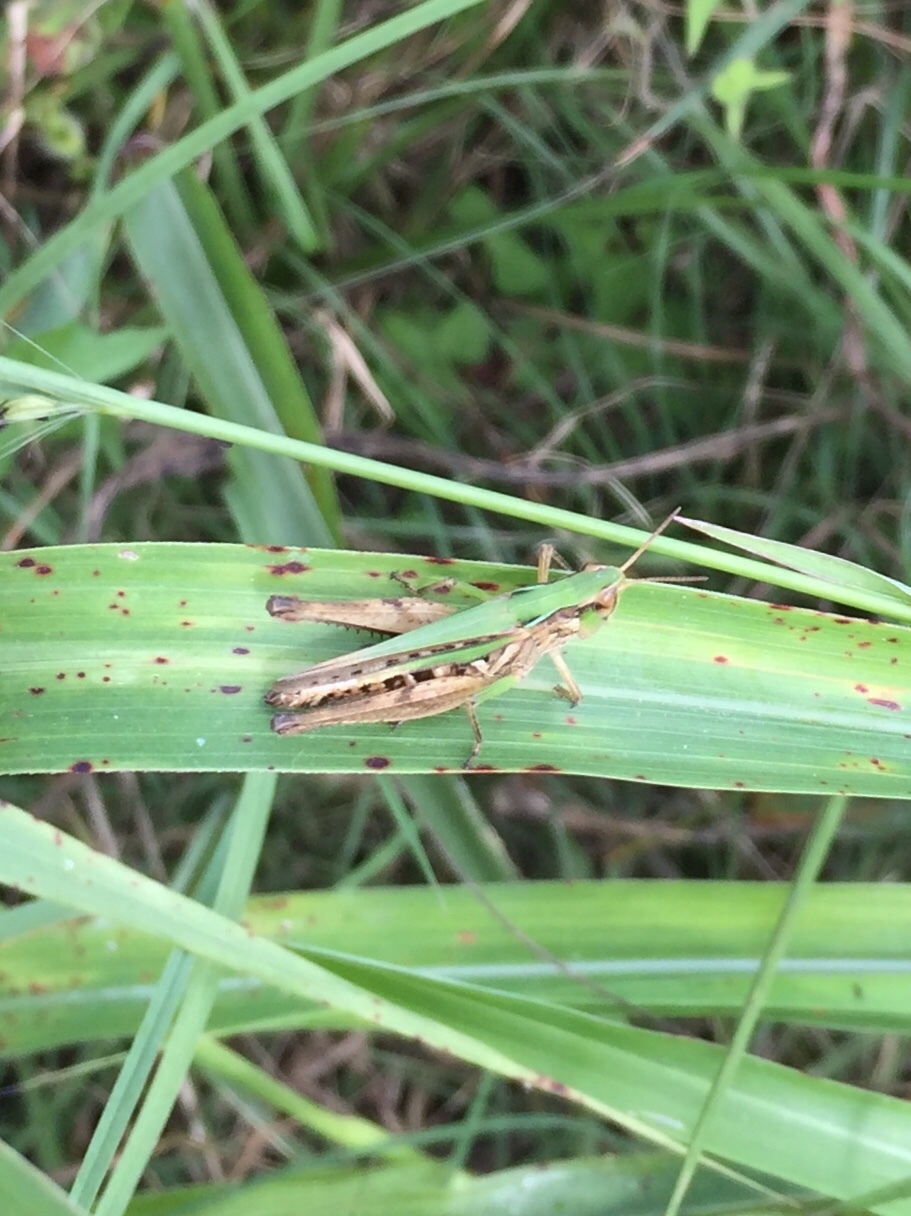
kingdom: Animalia
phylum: Arthropoda
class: Insecta
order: Orthoptera
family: Acrididae
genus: Orphulella
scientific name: Orphulella speciosa
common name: Pasture grasshopper
